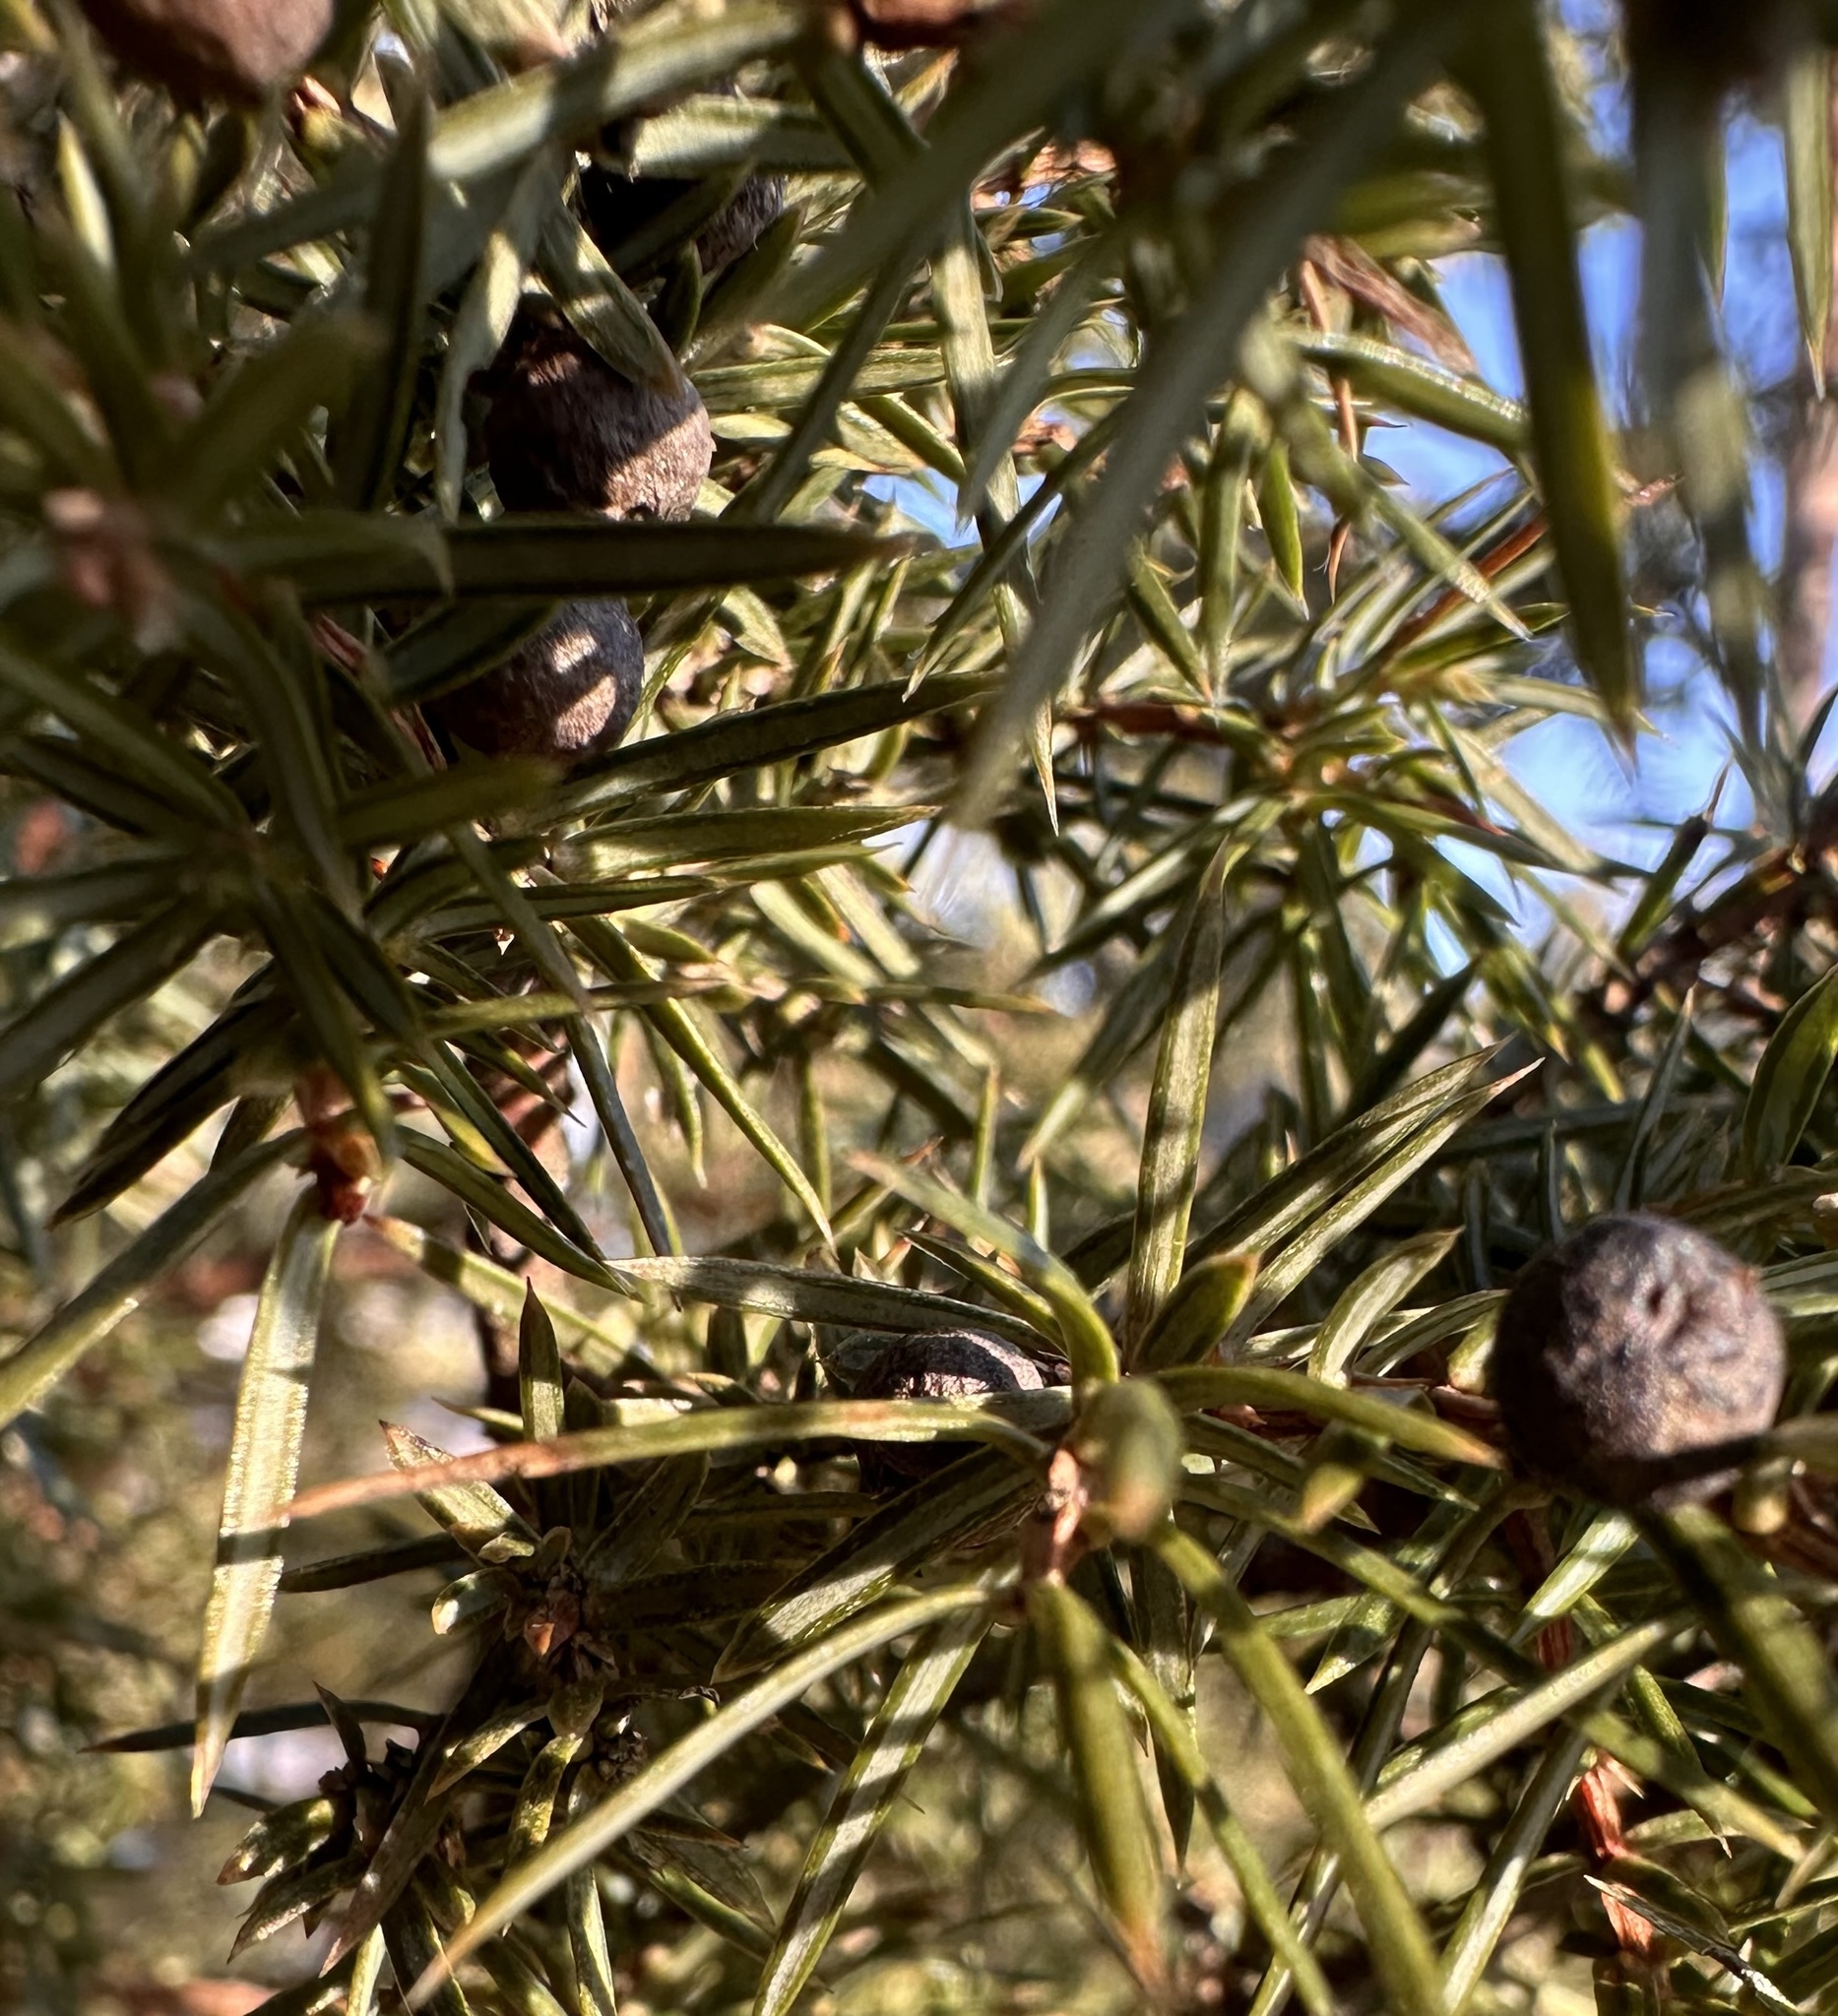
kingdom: Plantae
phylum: Tracheophyta
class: Pinopsida
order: Pinales
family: Cupressaceae
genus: Juniperus
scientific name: Juniperus communis
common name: Common juniper
